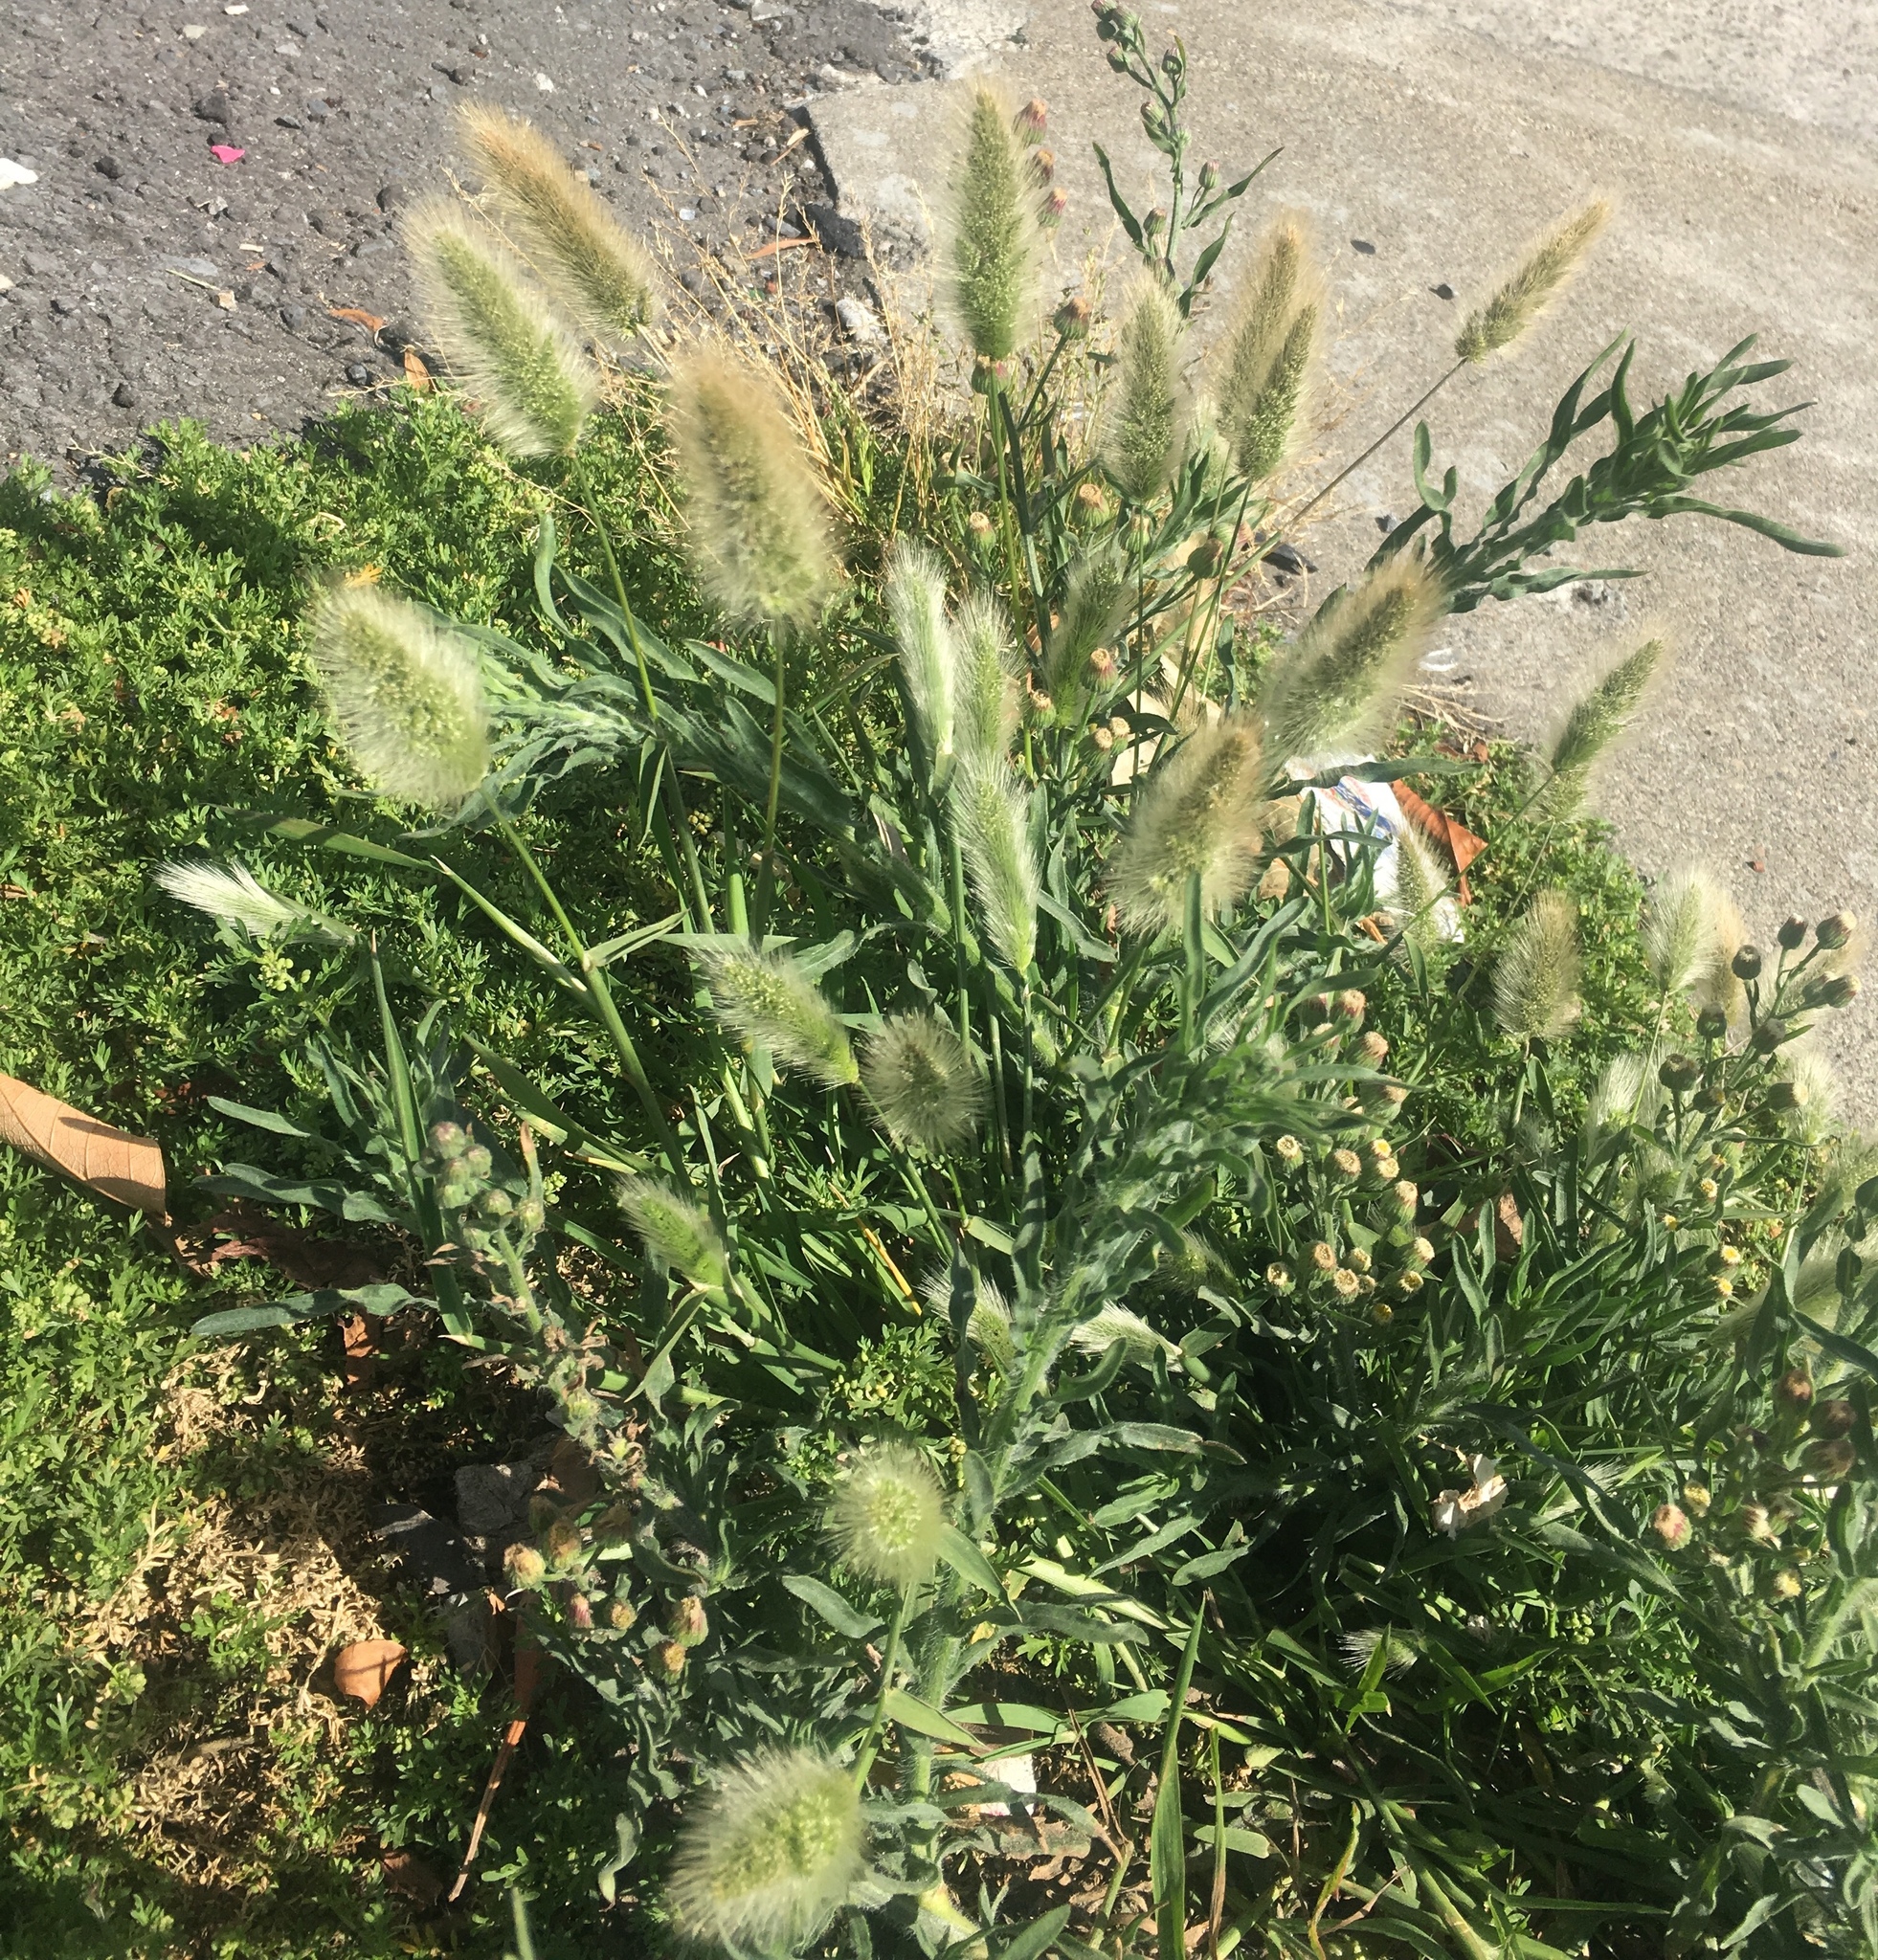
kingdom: Plantae
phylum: Tracheophyta
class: Liliopsida
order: Poales
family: Poaceae
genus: Polypogon
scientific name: Polypogon monspeliensis
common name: Annual rabbitsfoot grass
